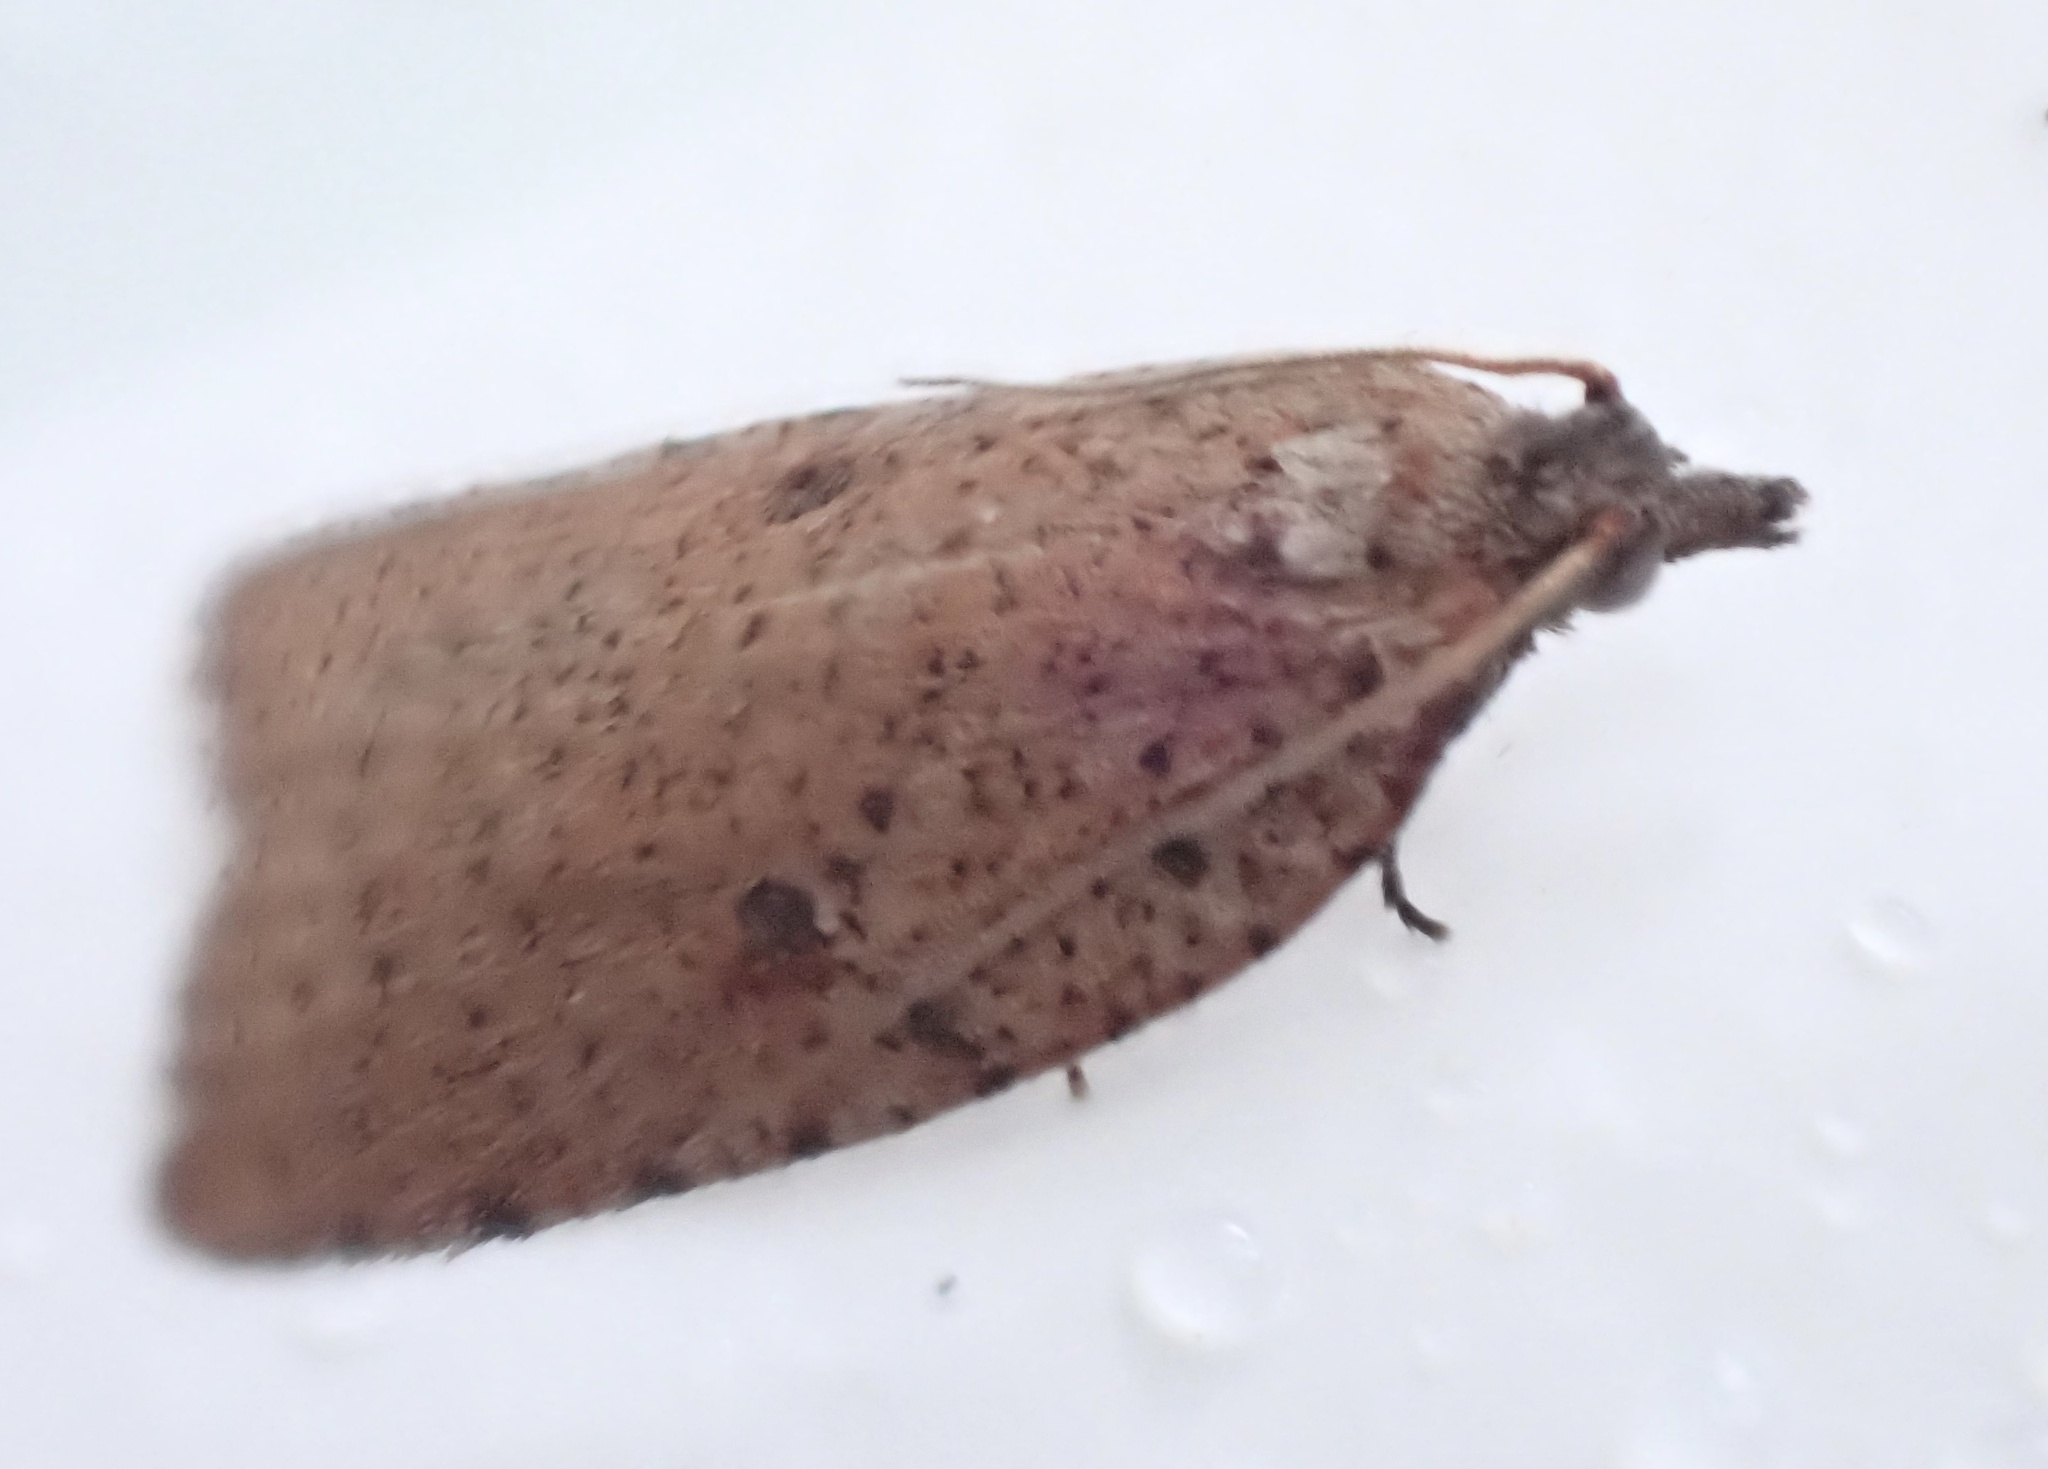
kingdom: Animalia
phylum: Arthropoda
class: Insecta
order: Lepidoptera
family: Tortricidae
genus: Meritastis
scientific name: Meritastis polygraphana
